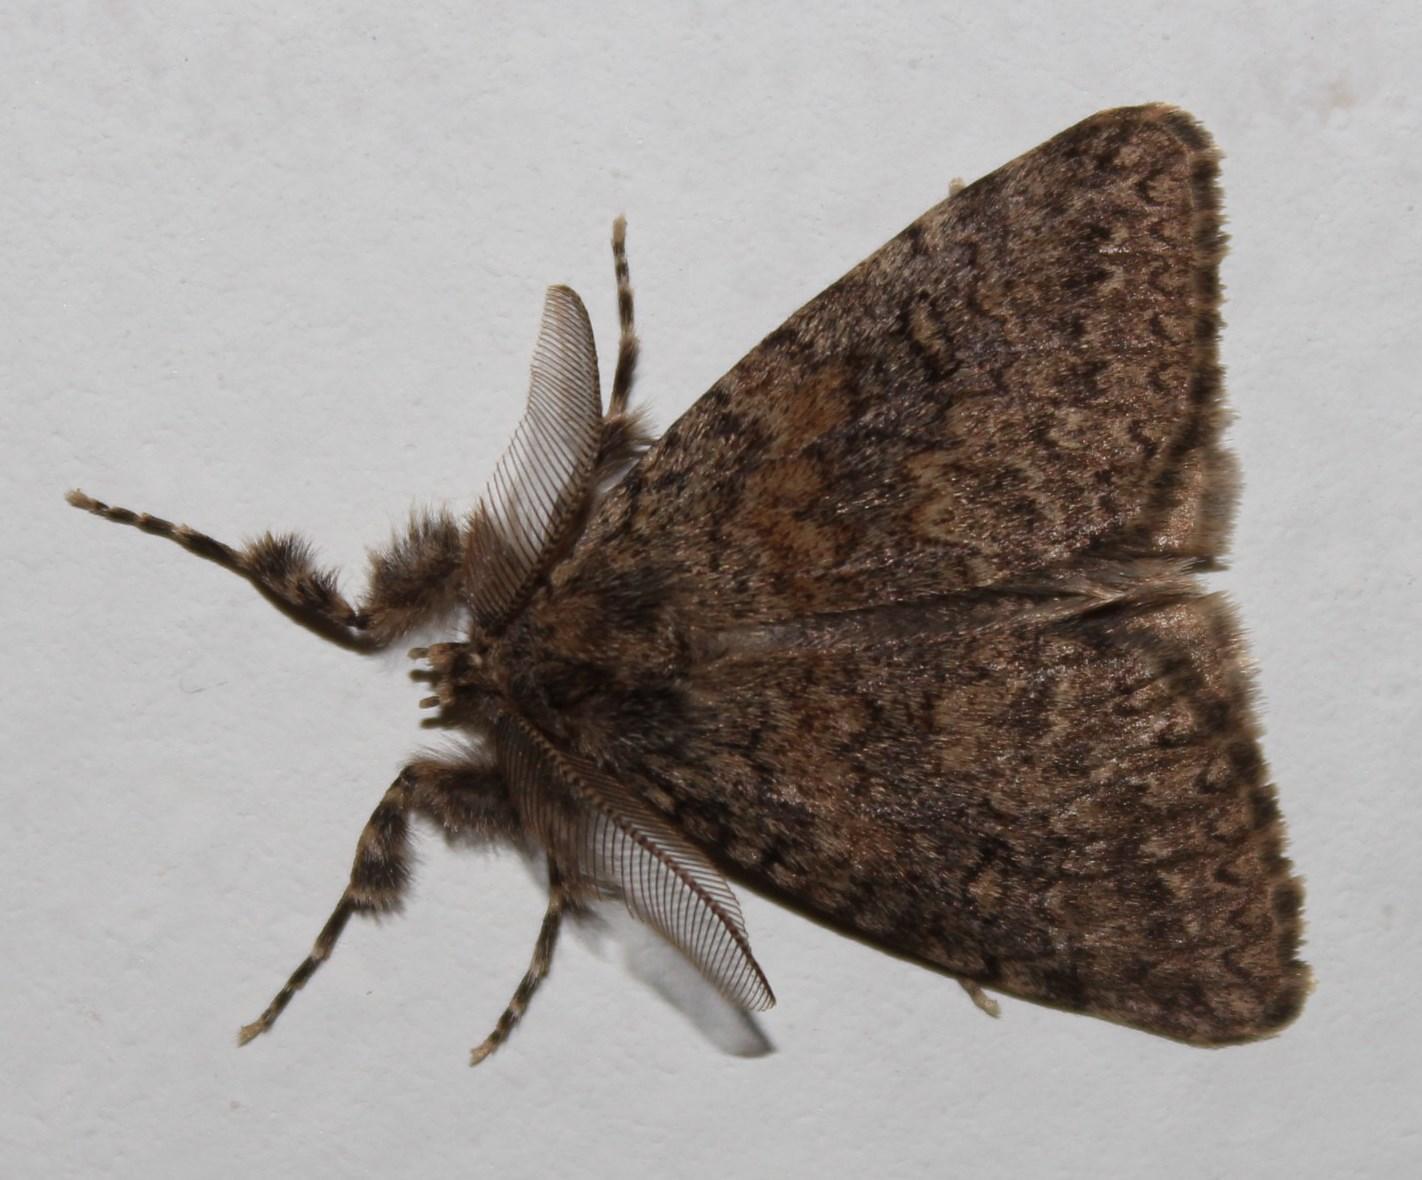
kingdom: Animalia
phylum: Arthropoda
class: Insecta
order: Lepidoptera
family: Erebidae
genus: Laelia
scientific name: Laelia fusca
